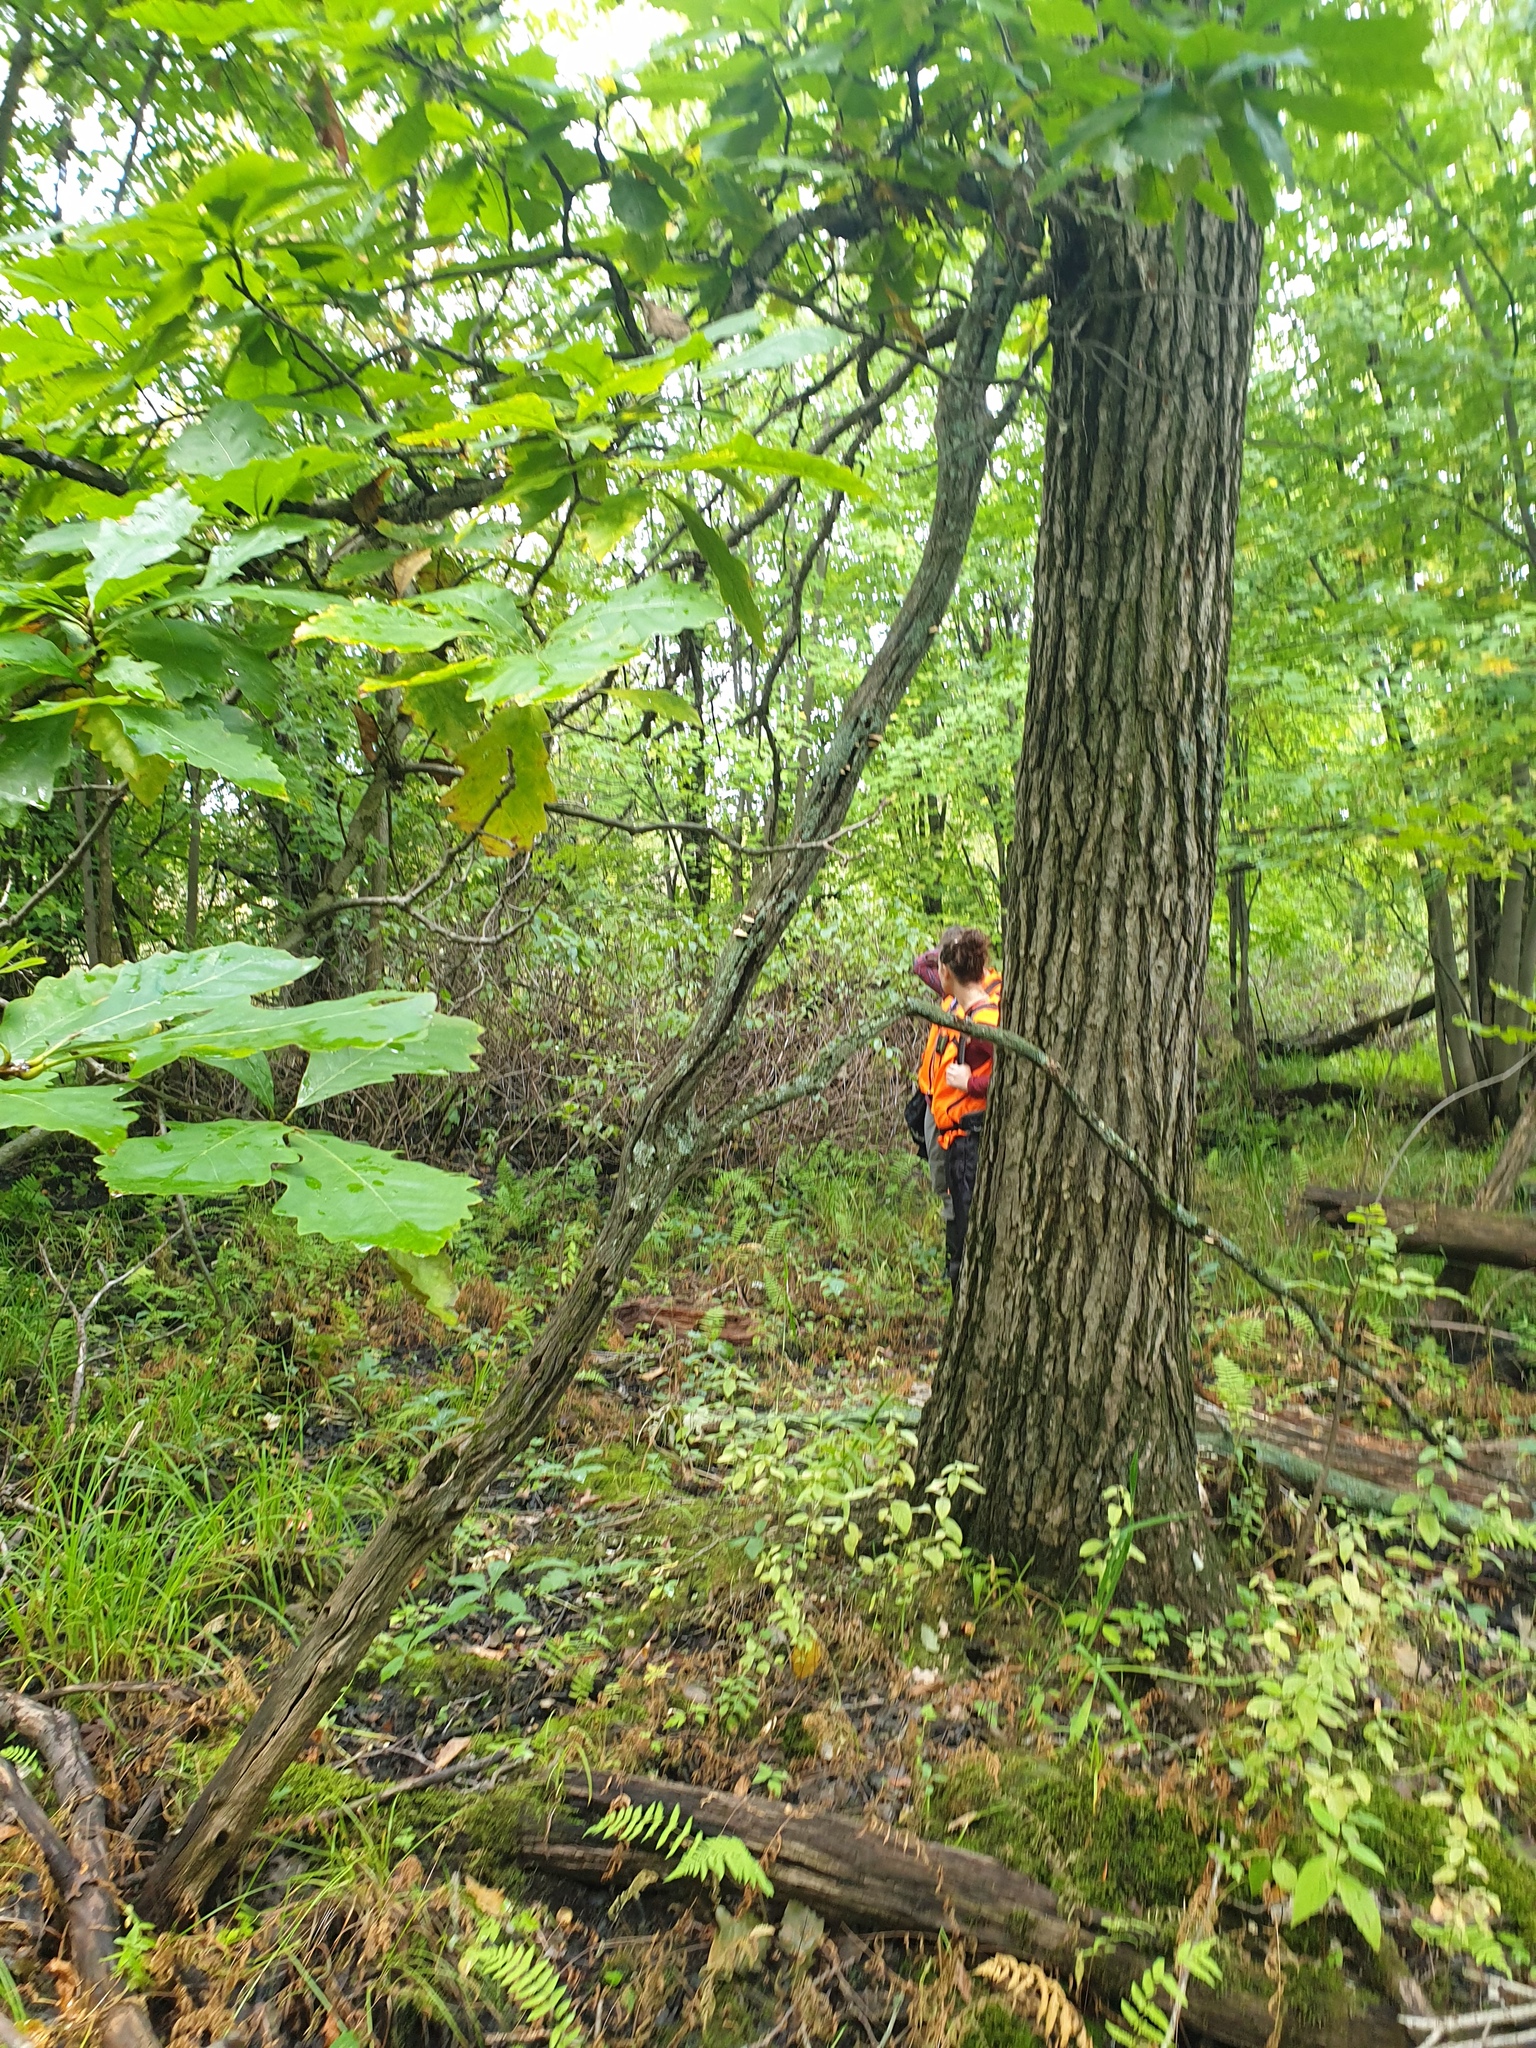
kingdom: Plantae
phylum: Tracheophyta
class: Magnoliopsida
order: Fagales
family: Fagaceae
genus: Quercus
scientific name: Quercus bicolor
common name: Swamp white oak
